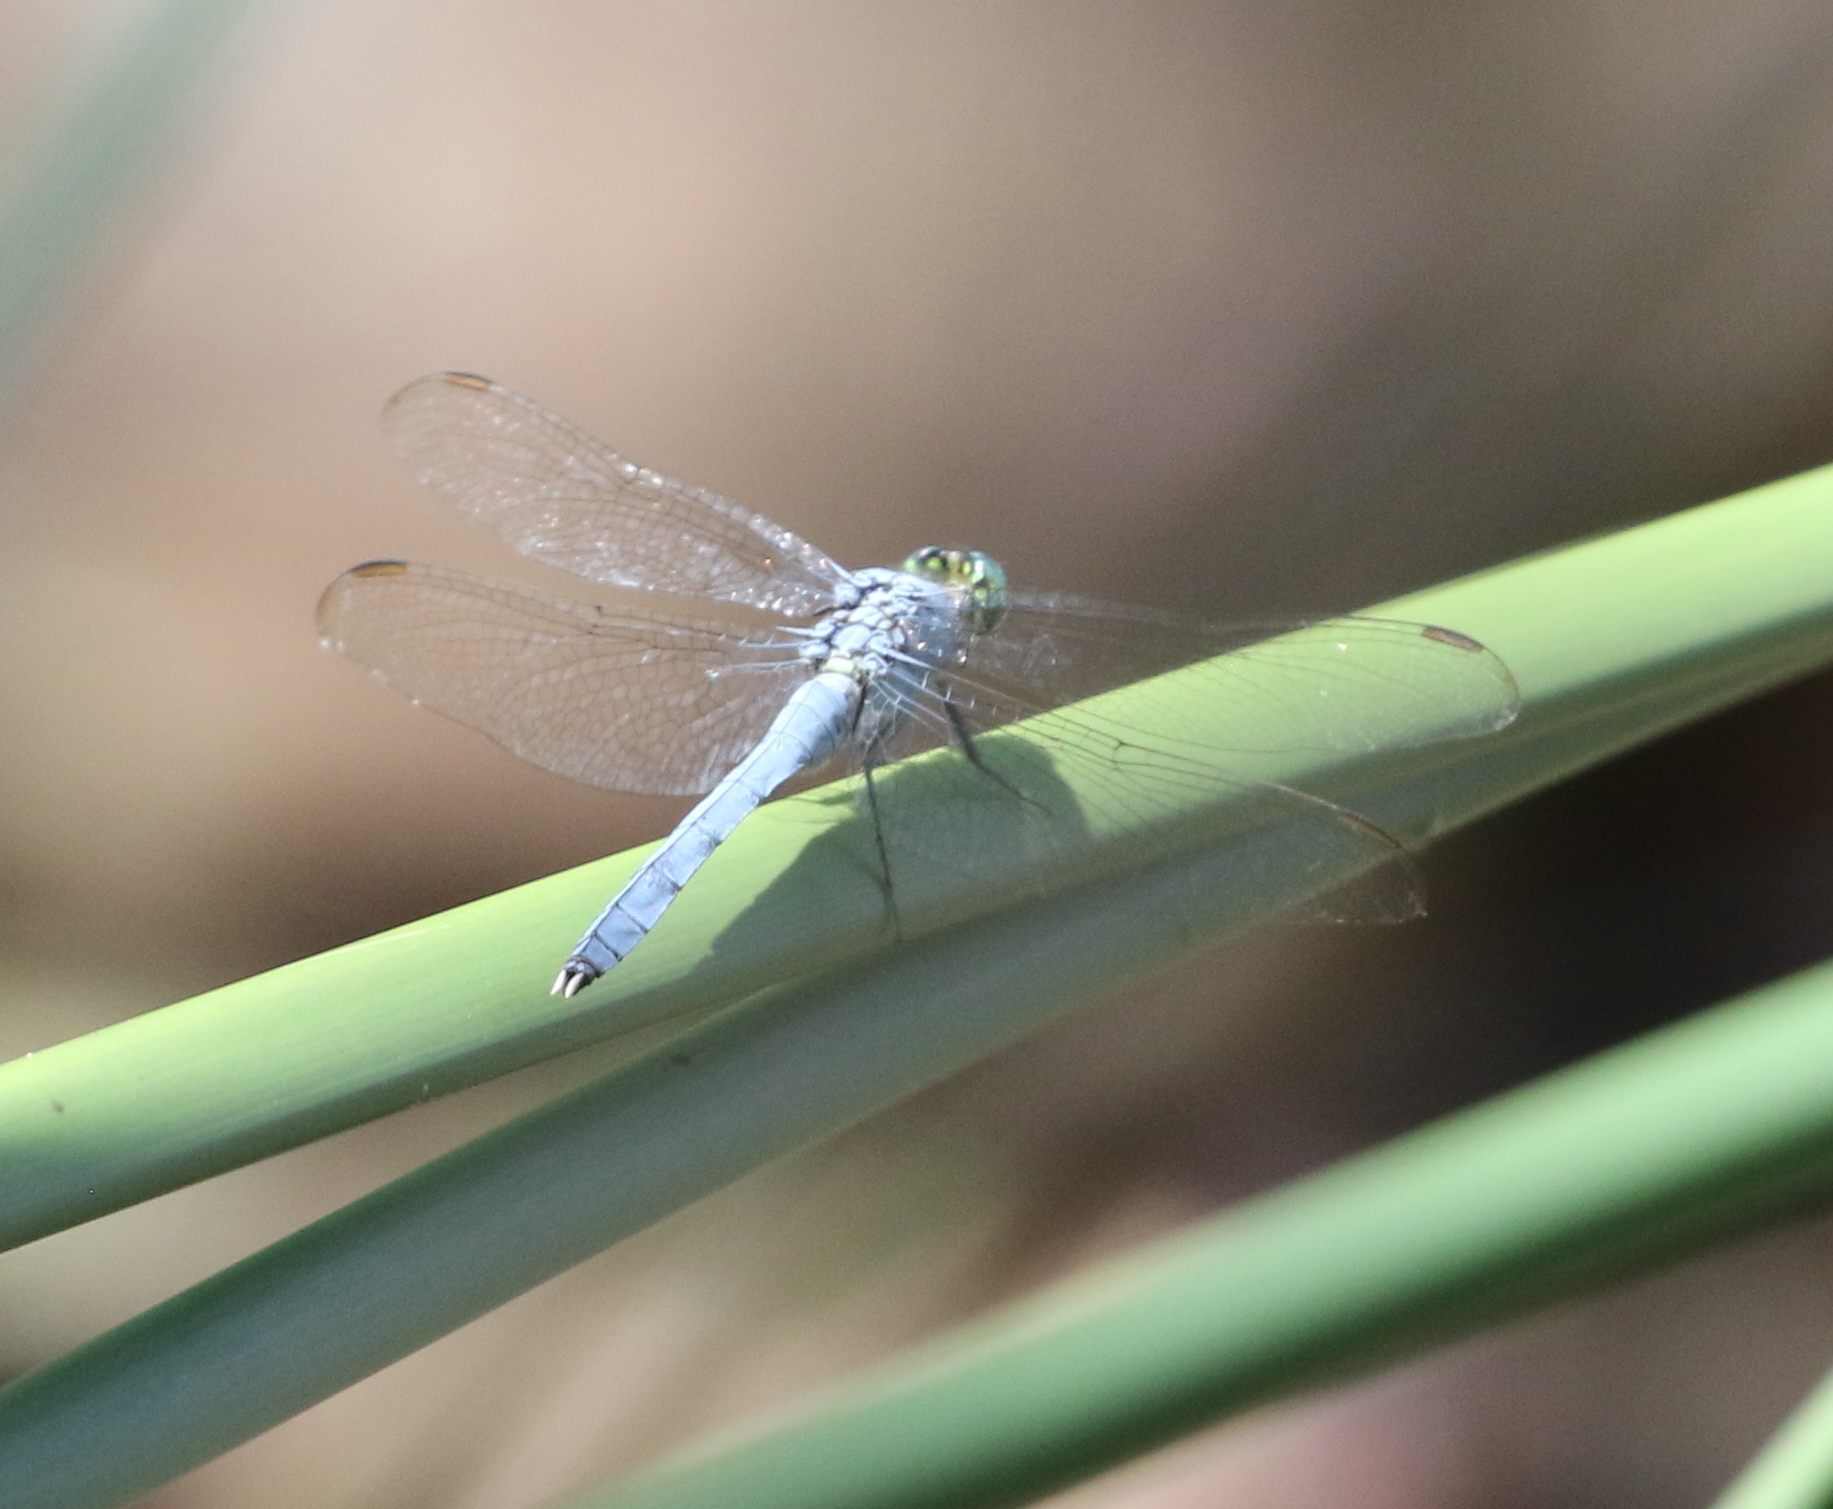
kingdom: Animalia
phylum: Arthropoda
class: Insecta
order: Odonata
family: Libellulidae
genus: Erythemis
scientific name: Erythemis simplicicollis
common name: Eastern pondhawk
